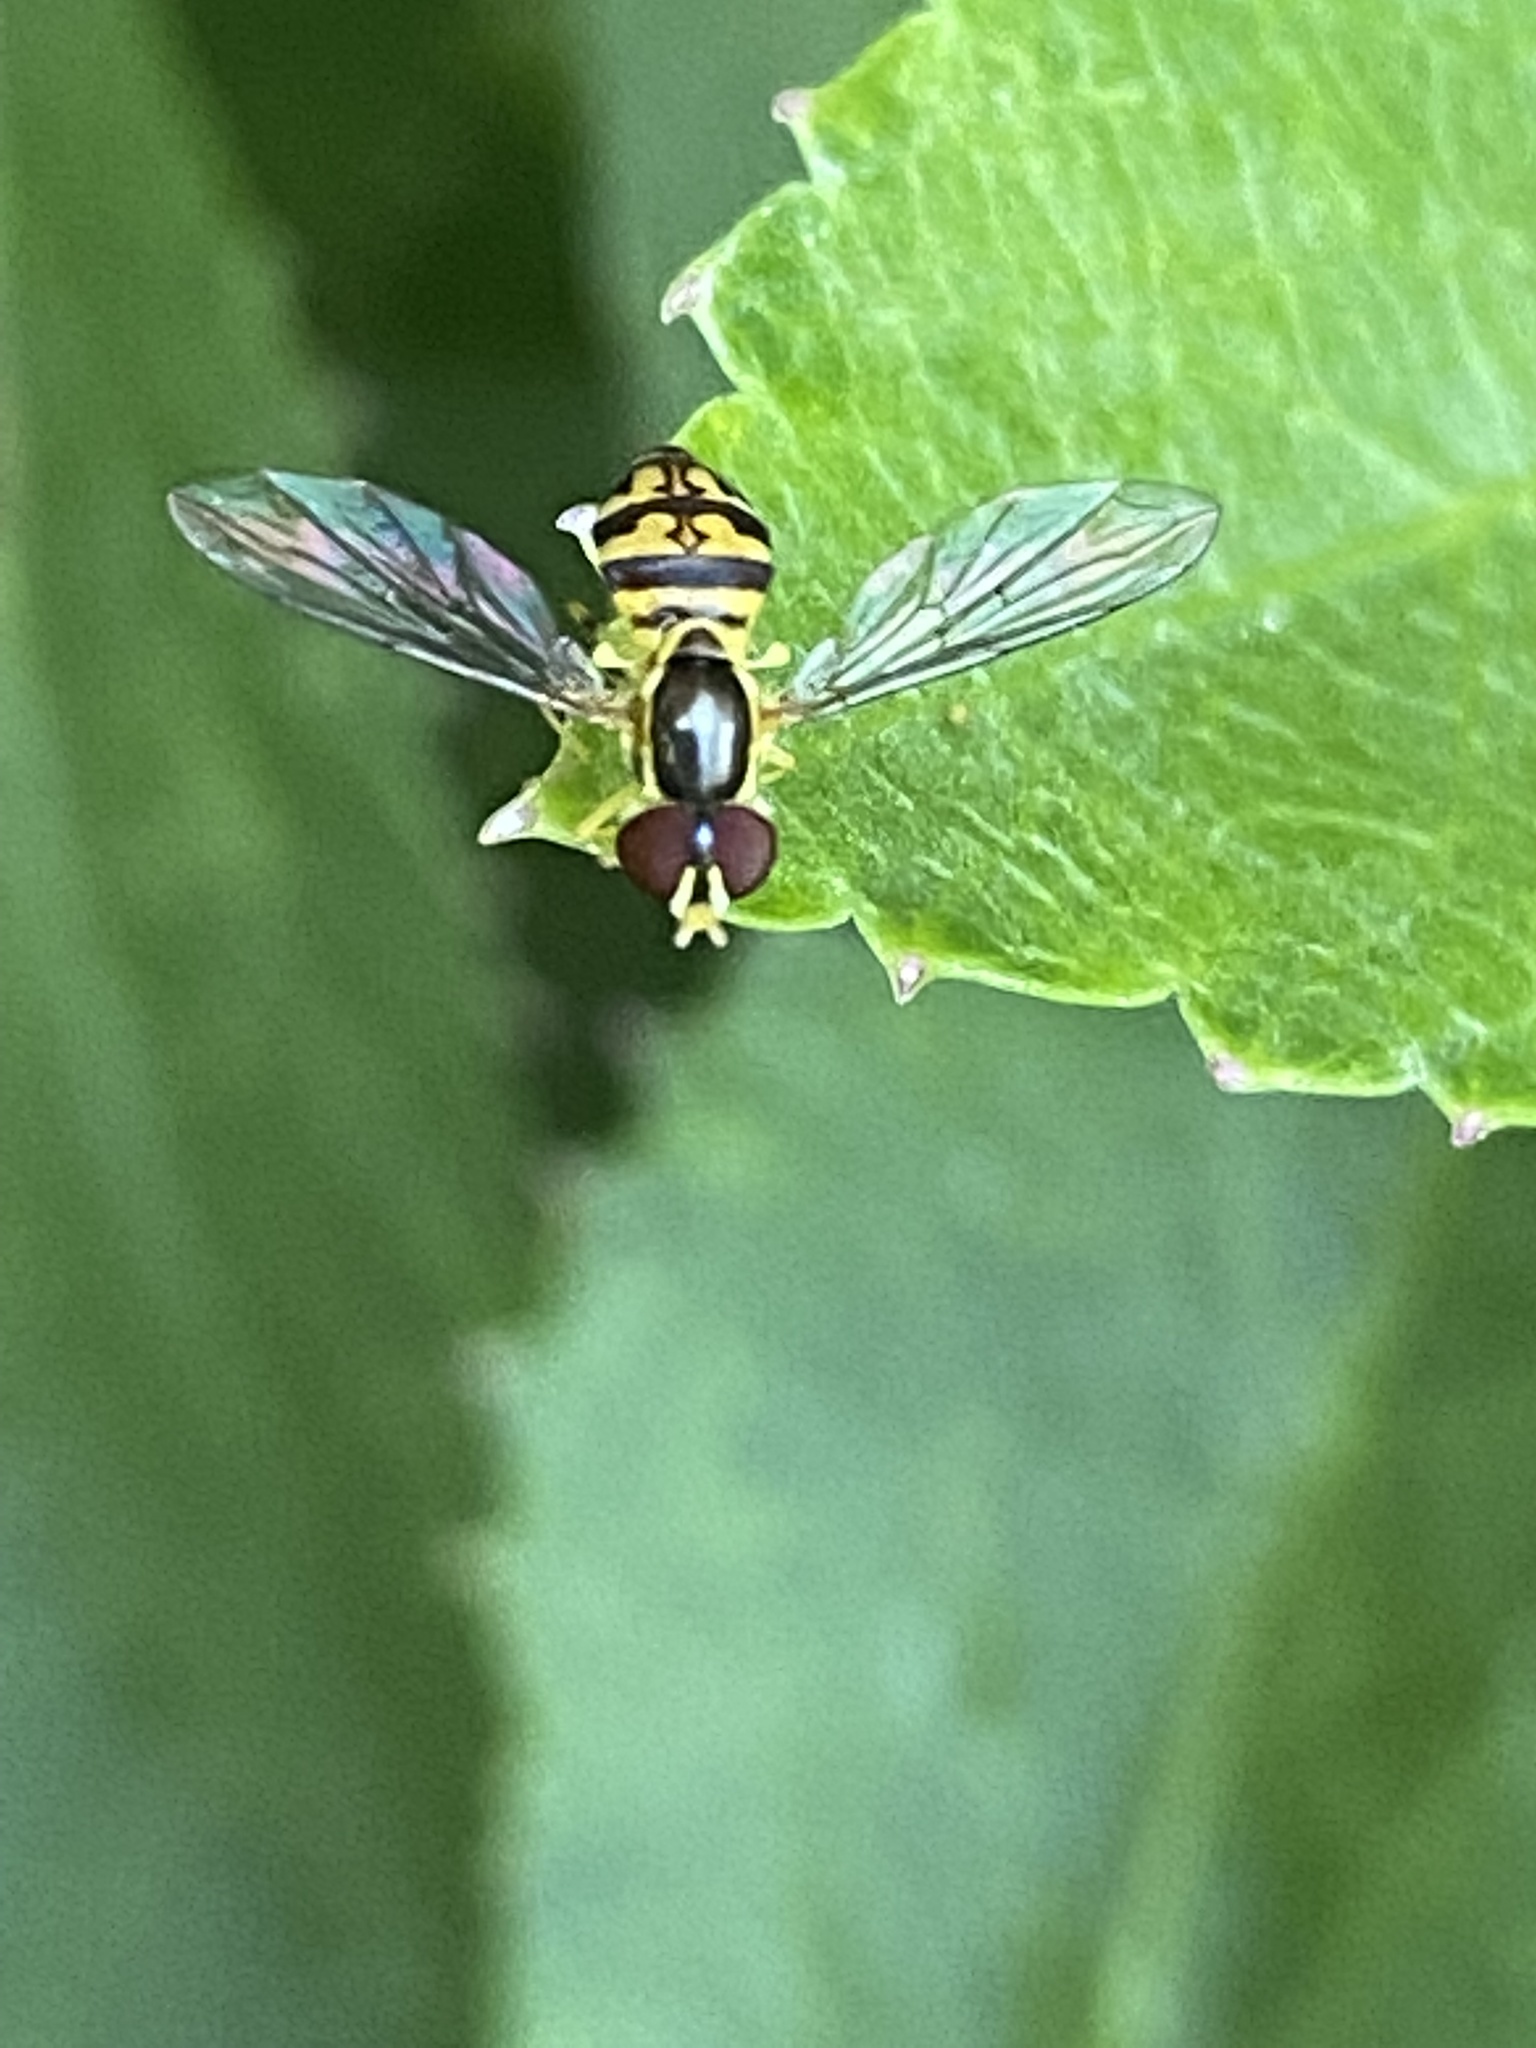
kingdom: Animalia
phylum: Arthropoda
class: Insecta
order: Diptera
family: Syrphidae
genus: Toxomerus
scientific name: Toxomerus geminatus
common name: Eastern calligrapher
